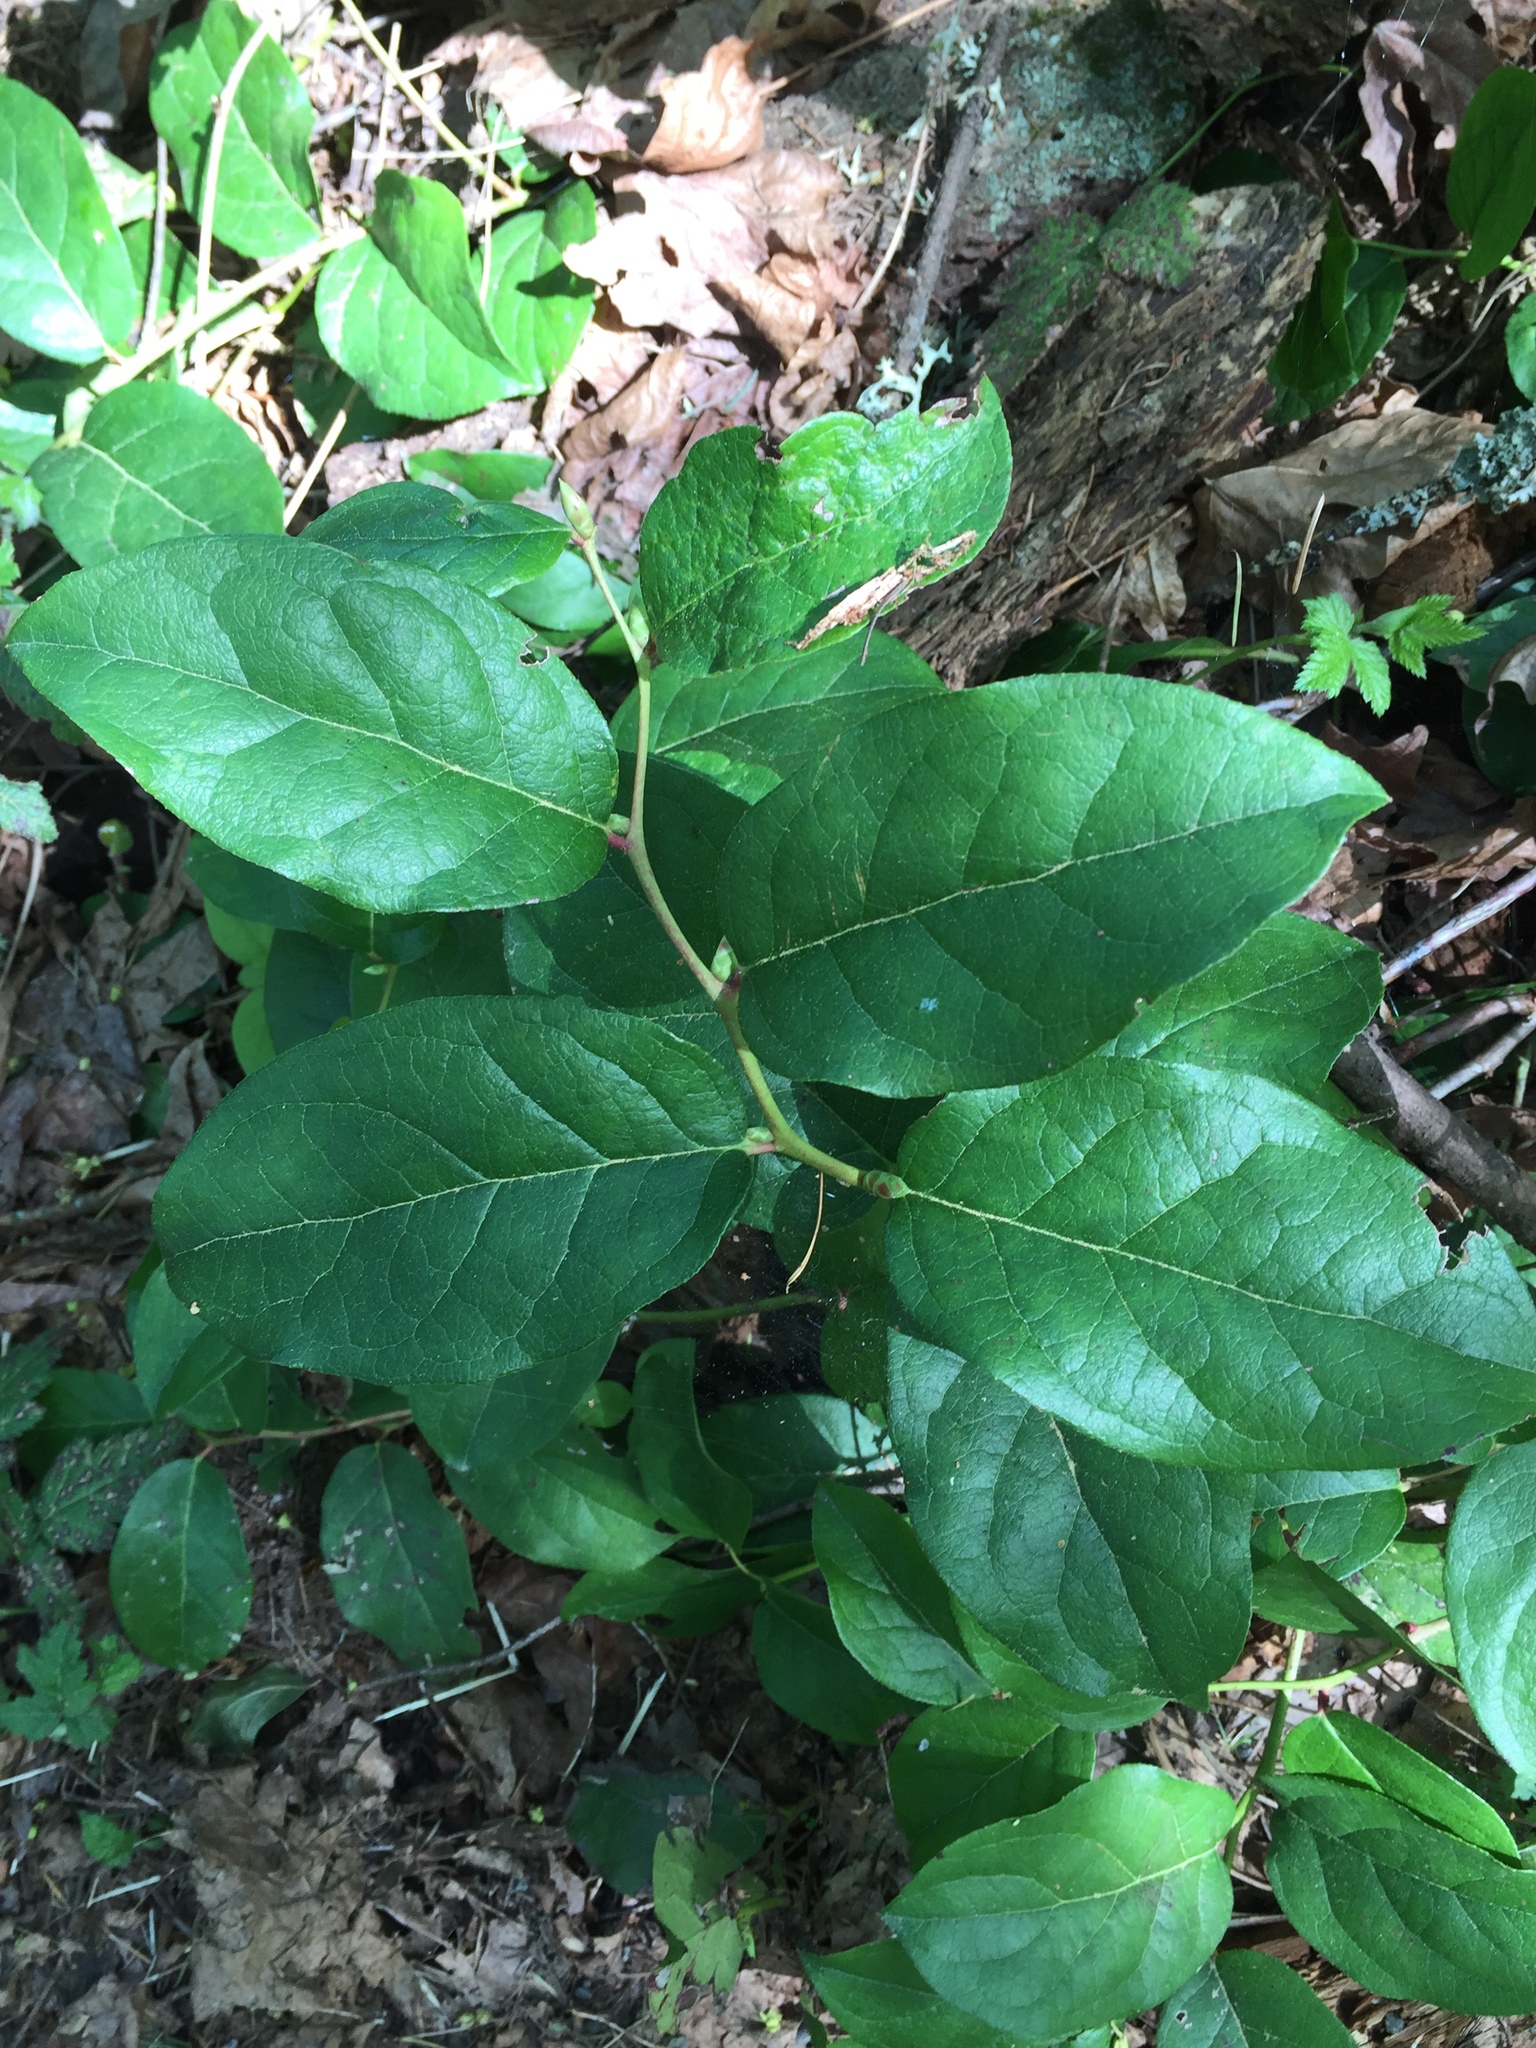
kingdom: Plantae
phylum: Tracheophyta
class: Magnoliopsida
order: Ericales
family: Ericaceae
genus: Gaultheria
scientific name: Gaultheria shallon
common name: Shallon
